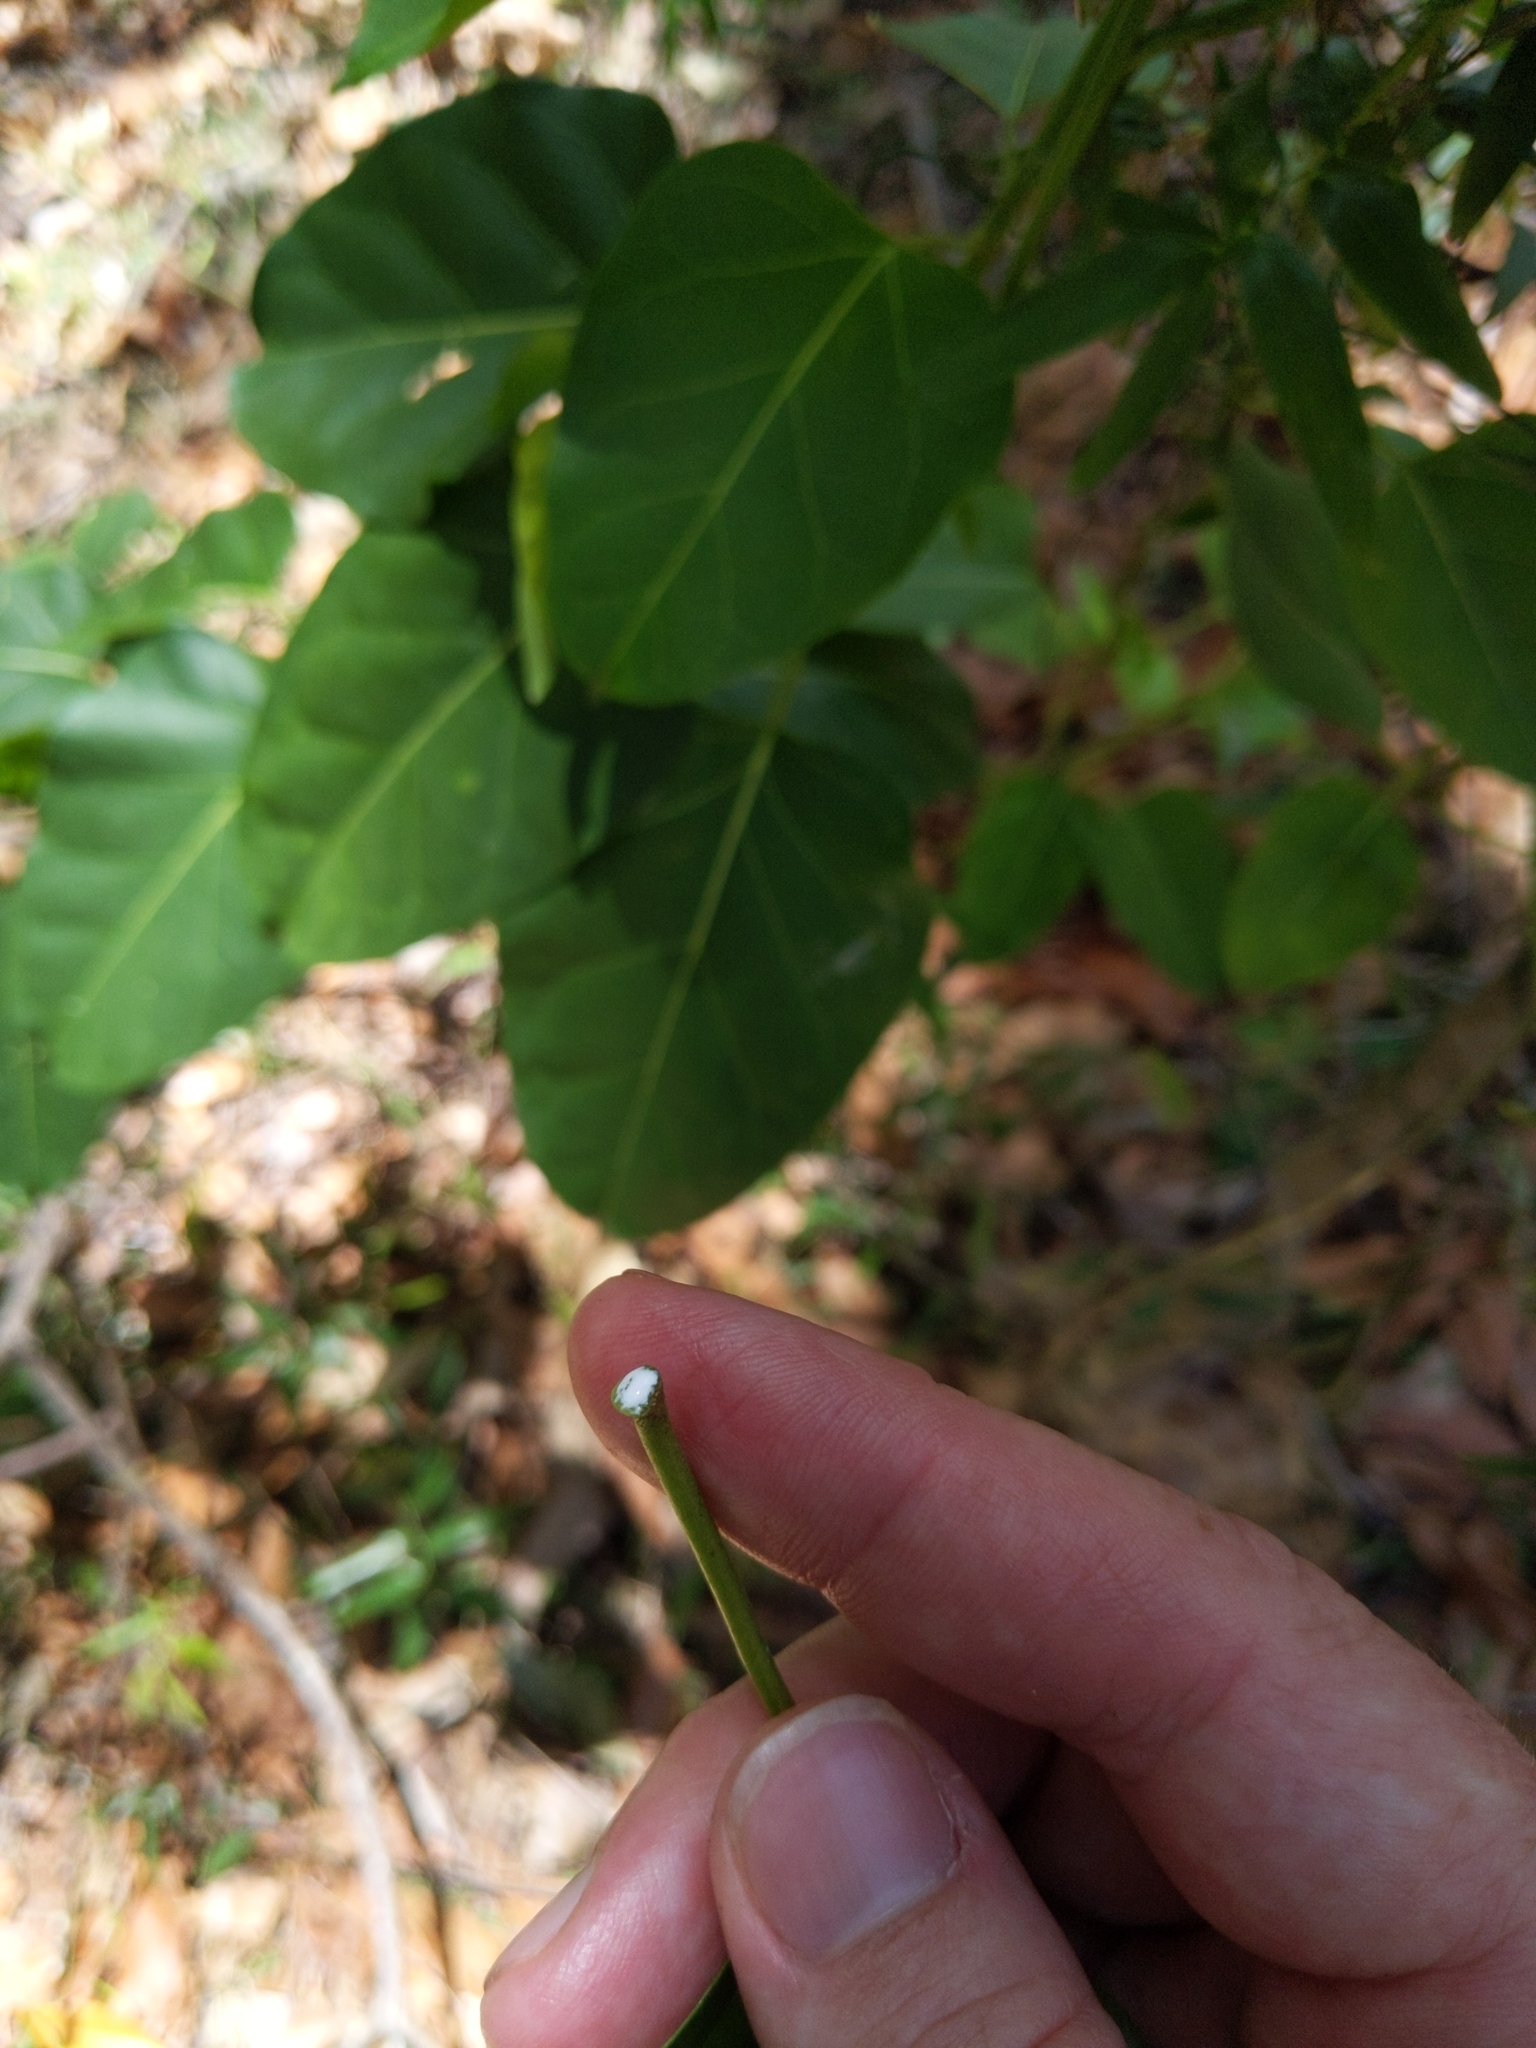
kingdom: Plantae
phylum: Tracheophyta
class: Magnoliopsida
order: Gentianales
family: Apocynaceae
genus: Leichhardtia
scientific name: Leichhardtia rostrata
